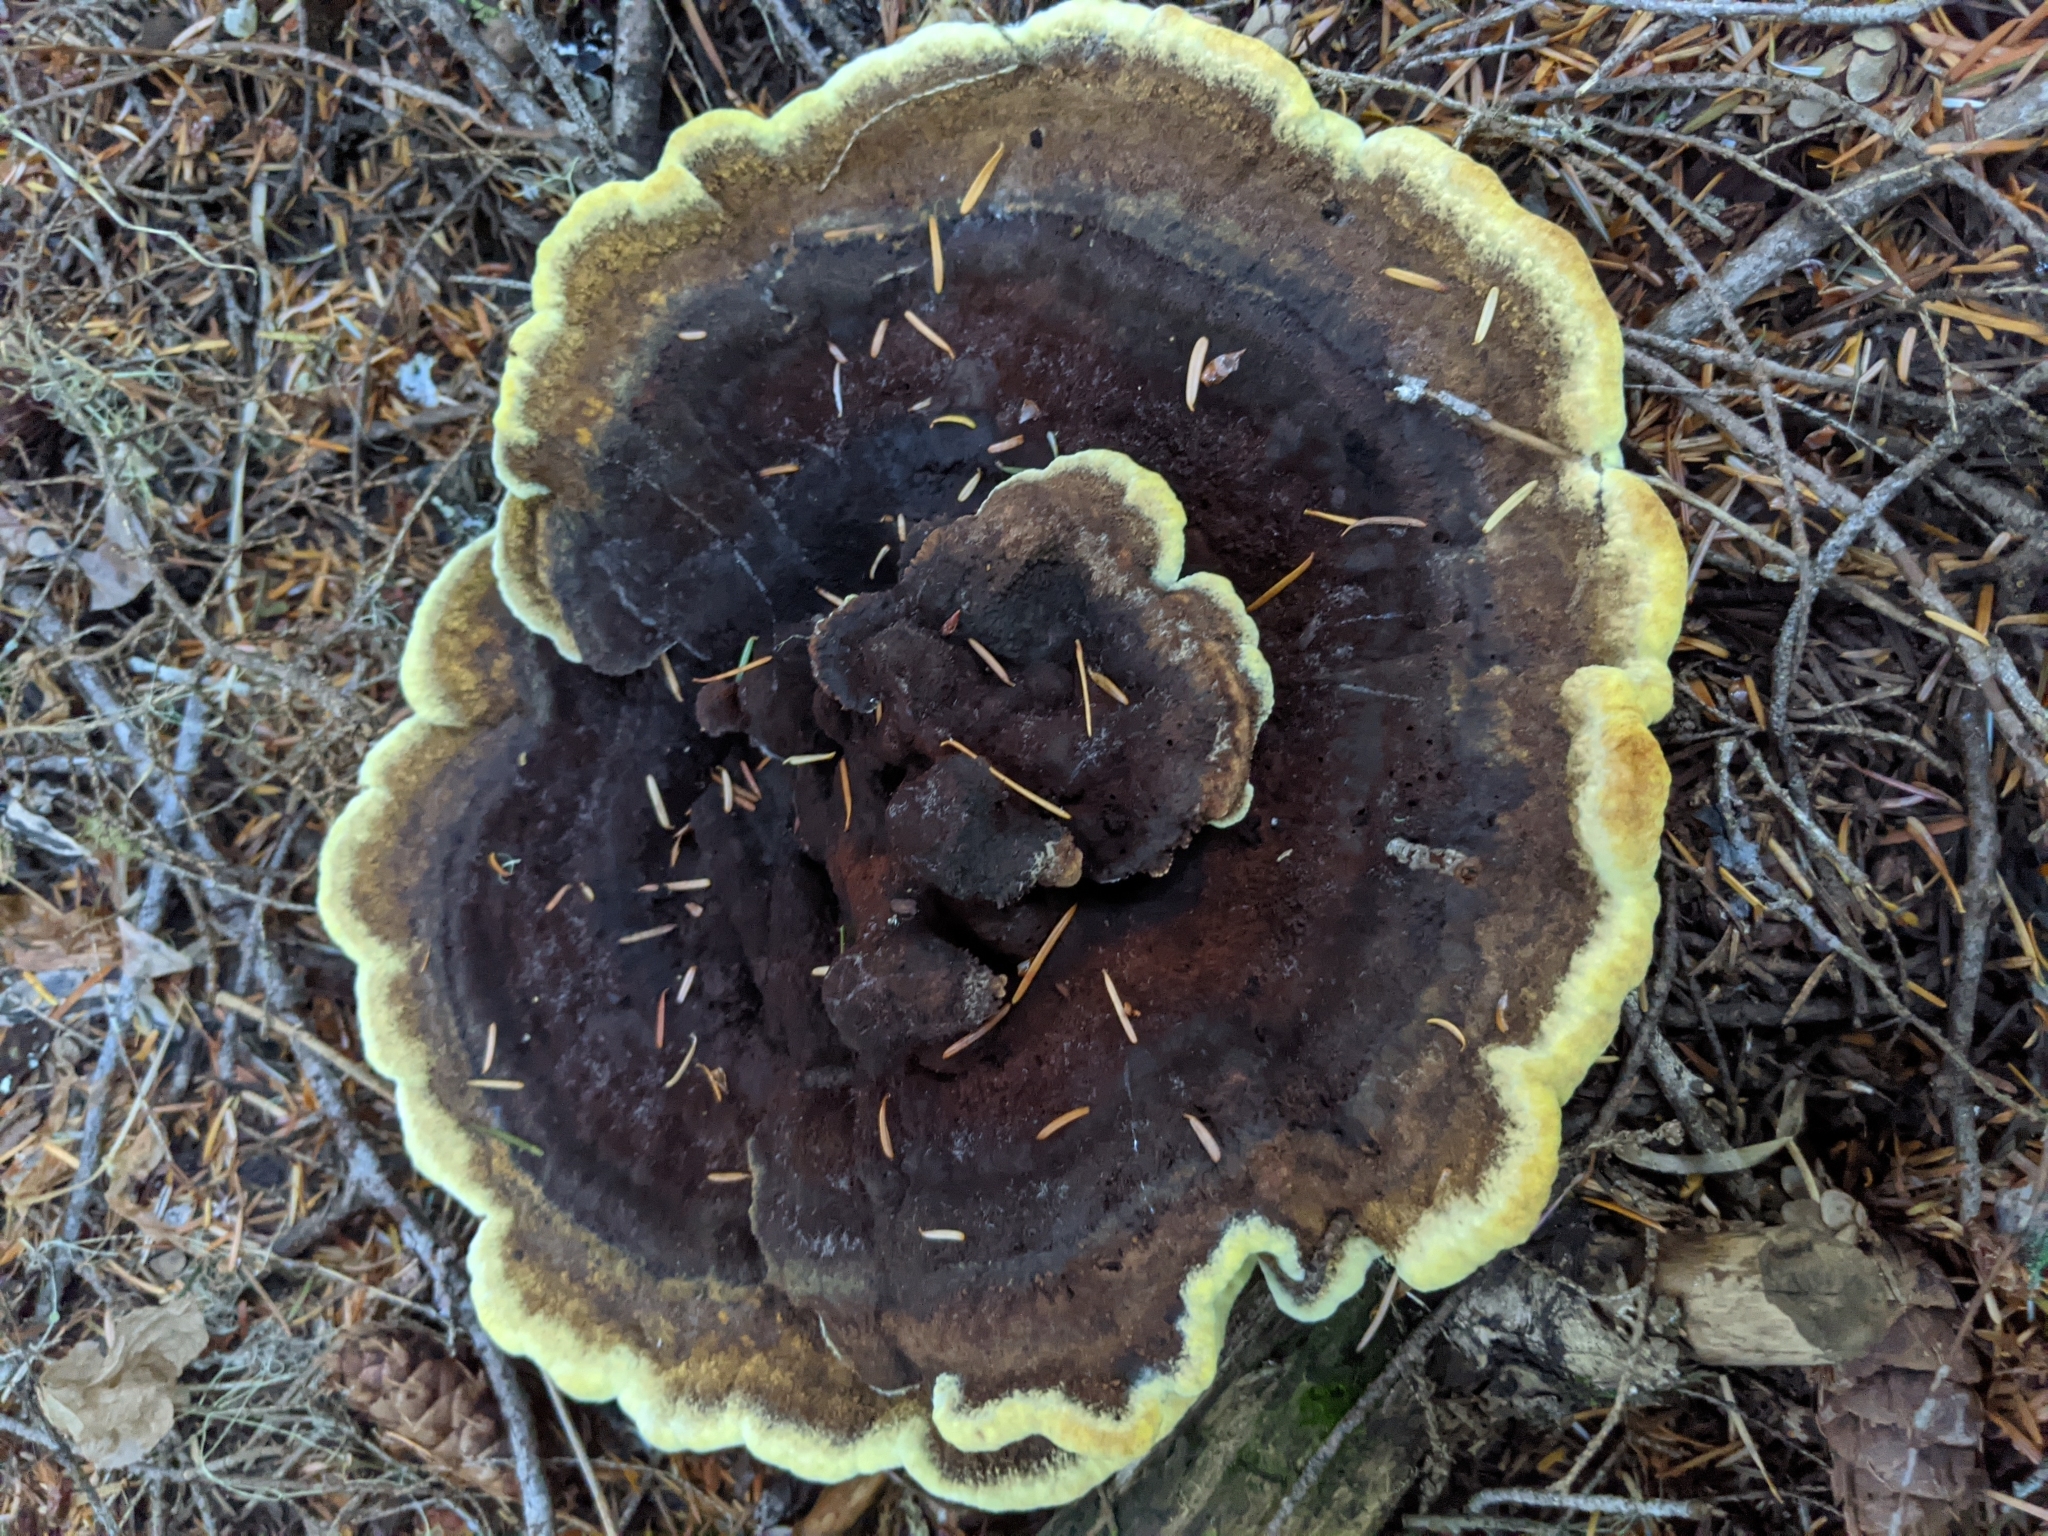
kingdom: Fungi
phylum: Basidiomycota
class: Agaricomycetes
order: Polyporales
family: Laetiporaceae
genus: Phaeolus
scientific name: Phaeolus schweinitzii
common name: Dyer's mazegill
